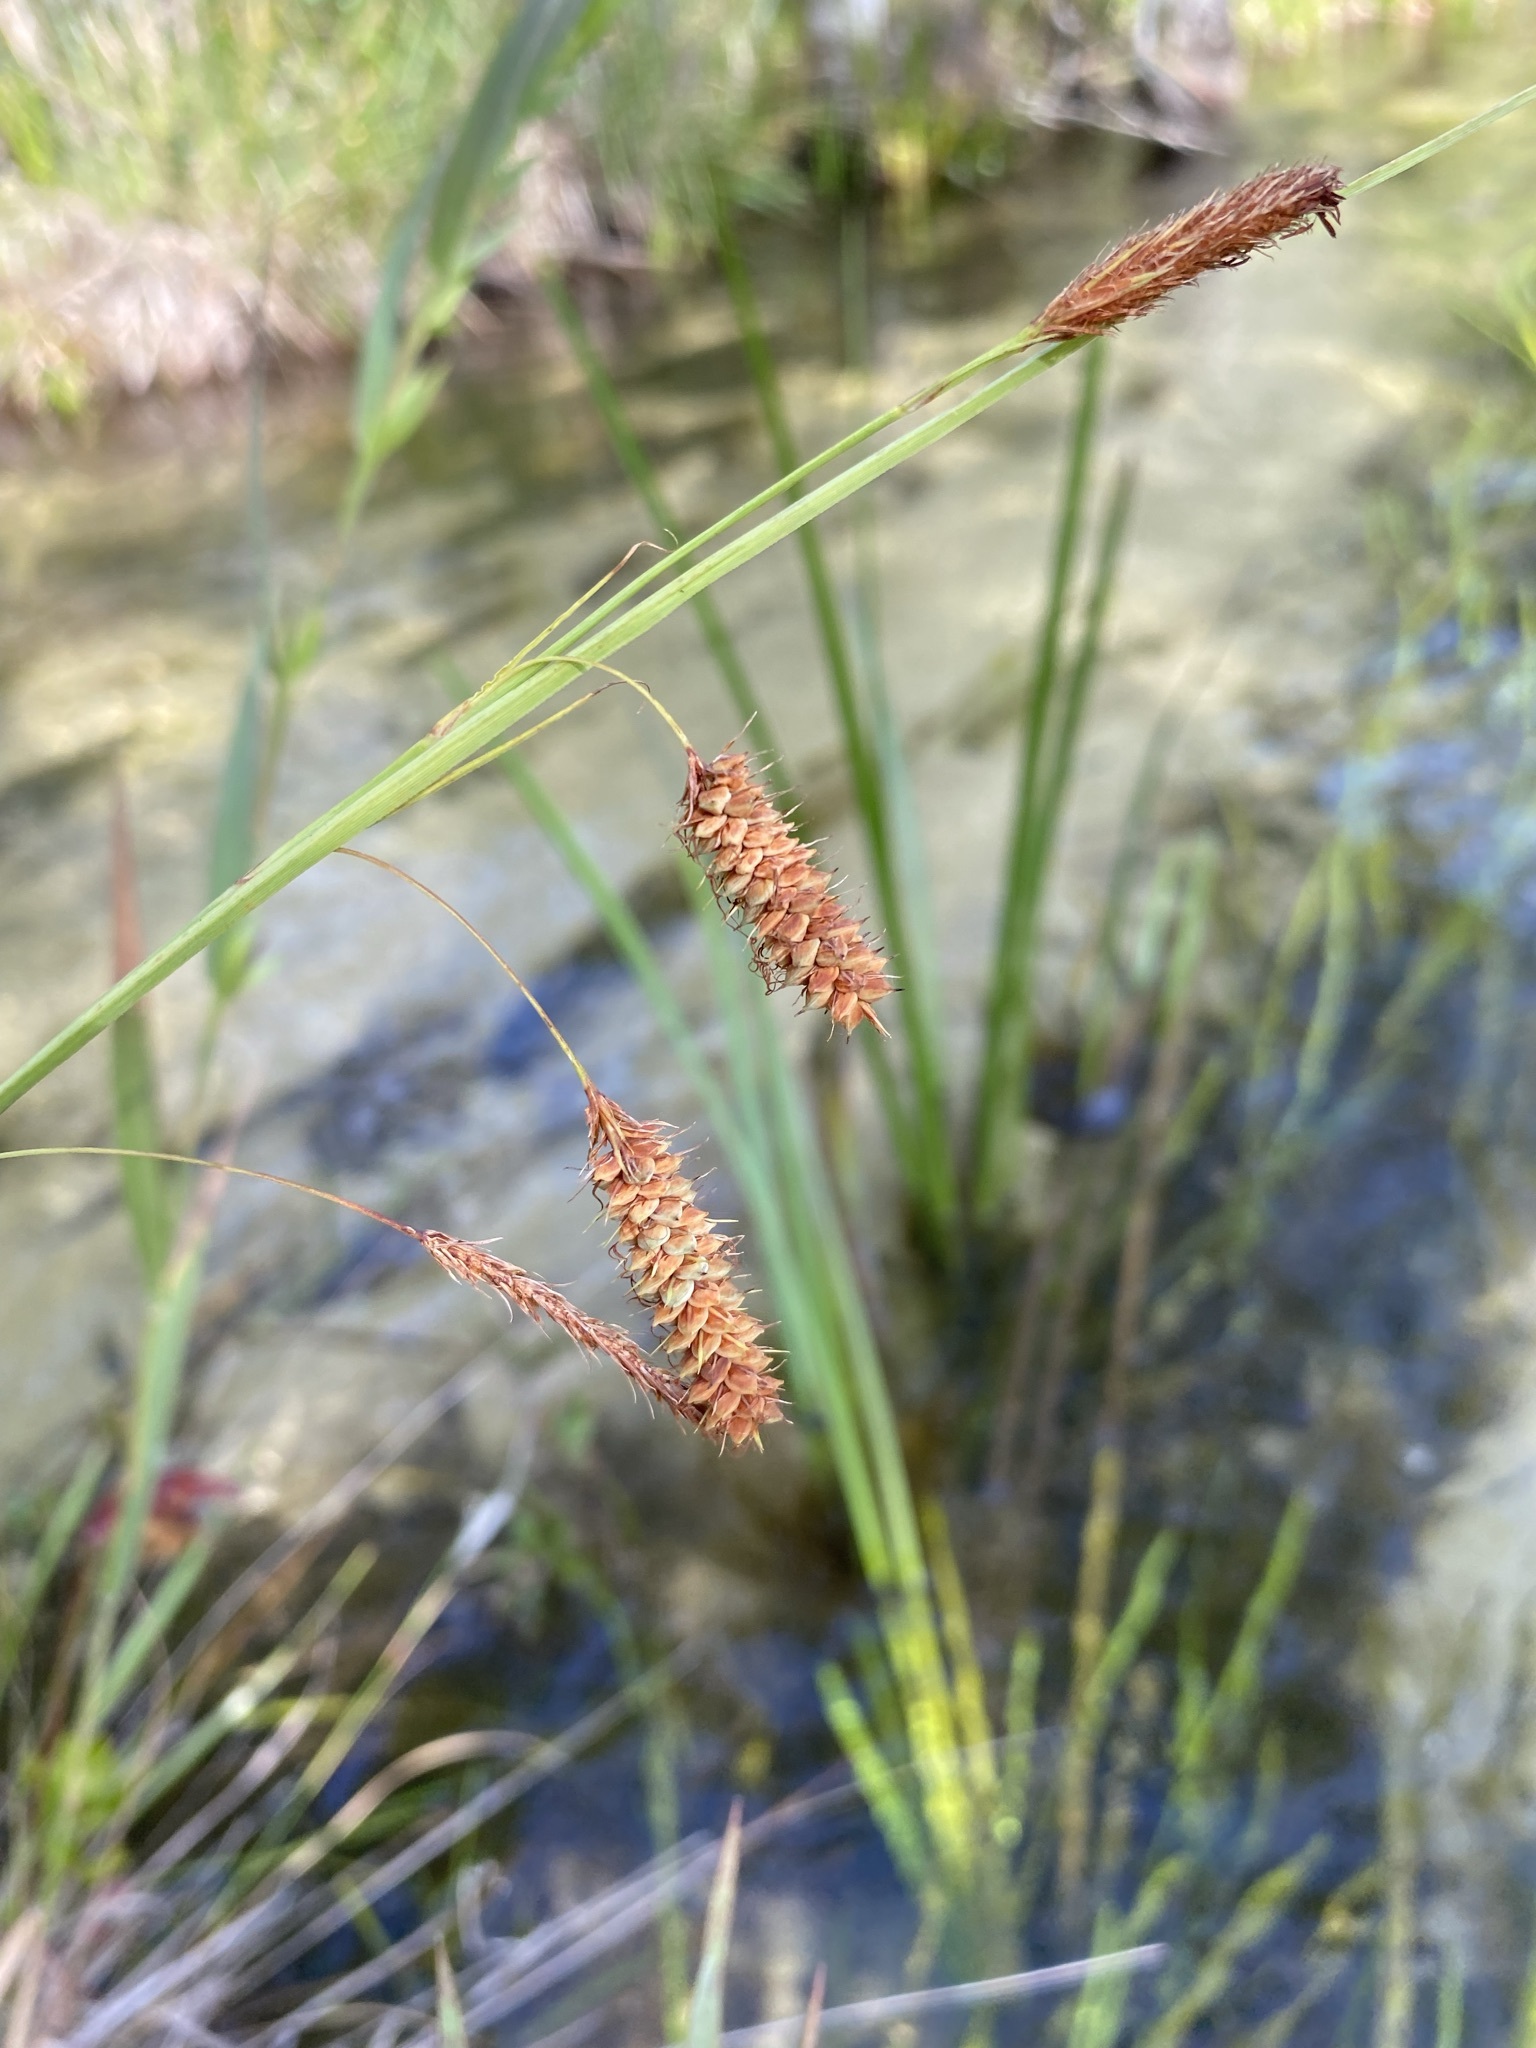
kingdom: Plantae
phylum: Tracheophyta
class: Liliopsida
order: Poales
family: Cyperaceae
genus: Carex
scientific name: Carex glaucescens
